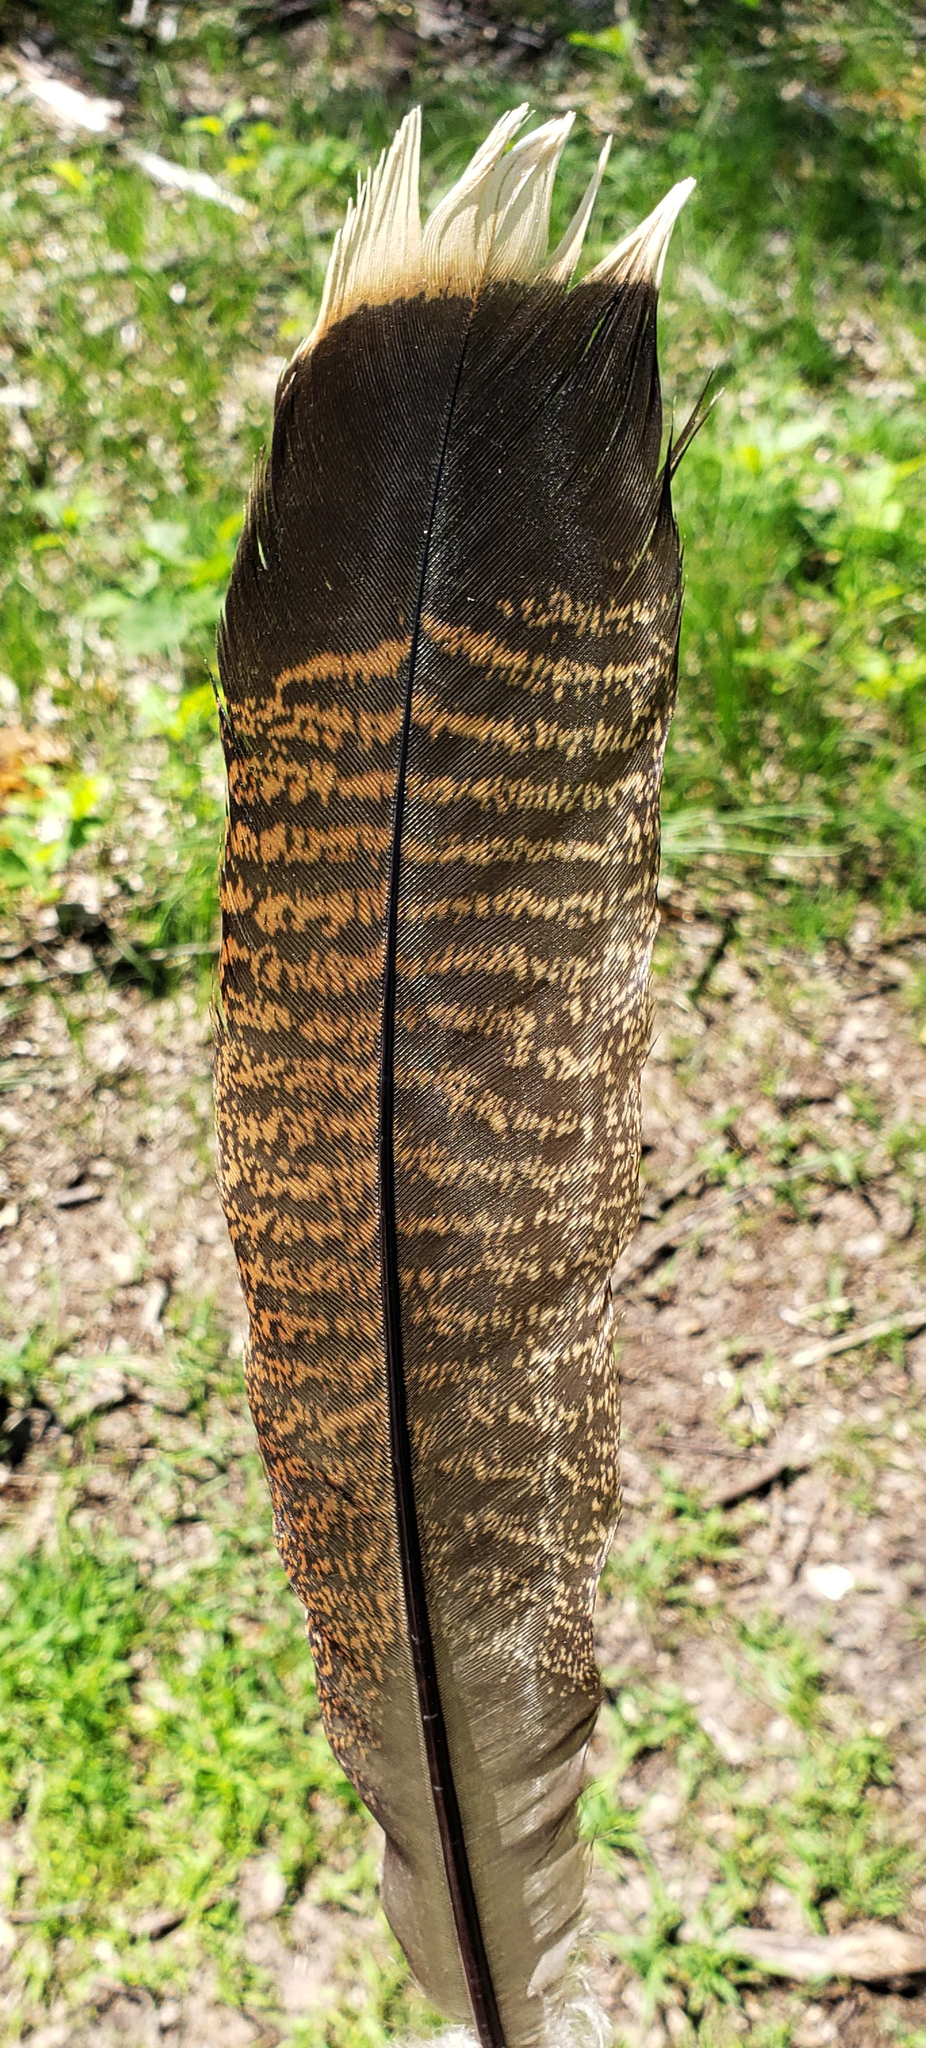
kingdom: Animalia
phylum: Chordata
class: Aves
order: Galliformes
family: Phasianidae
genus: Meleagris
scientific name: Meleagris gallopavo
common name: Wild turkey
